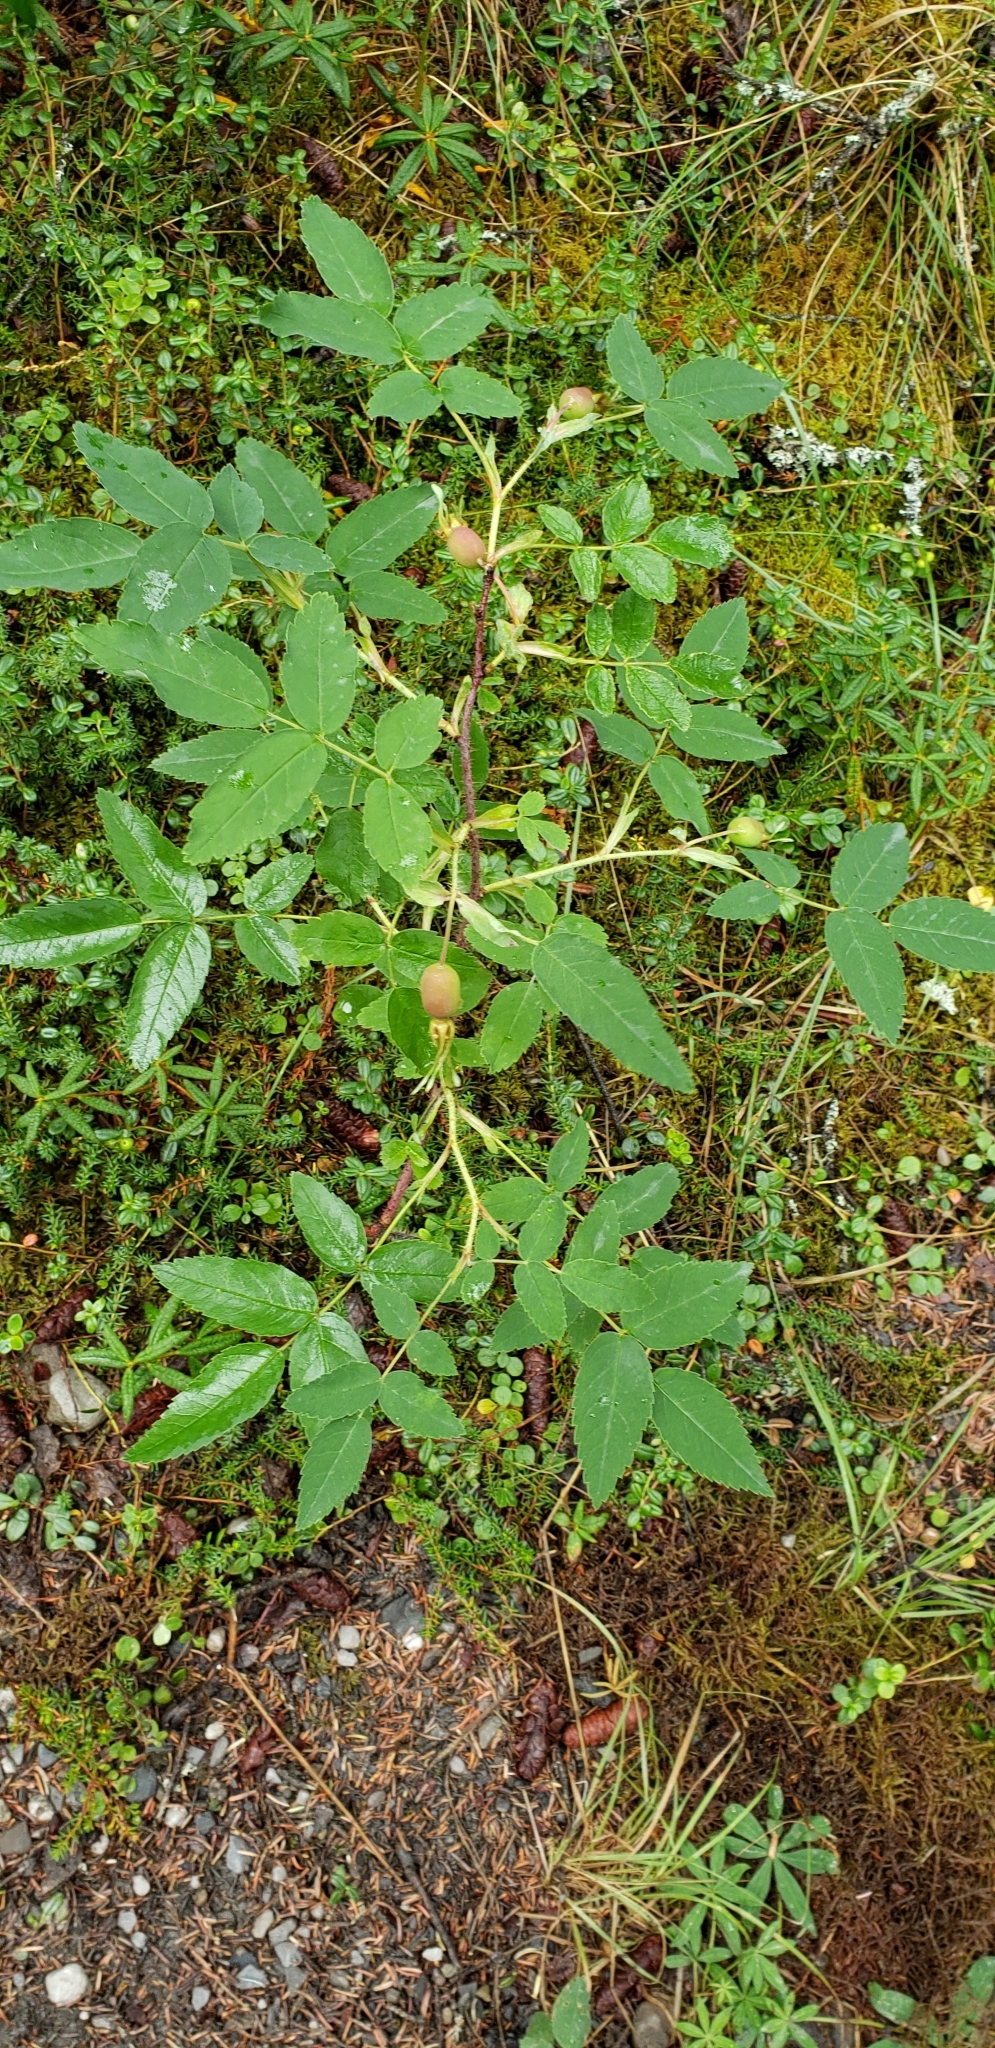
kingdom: Plantae
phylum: Tracheophyta
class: Magnoliopsida
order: Rosales
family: Rosaceae
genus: Rosa
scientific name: Rosa acicularis
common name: Prickly rose
